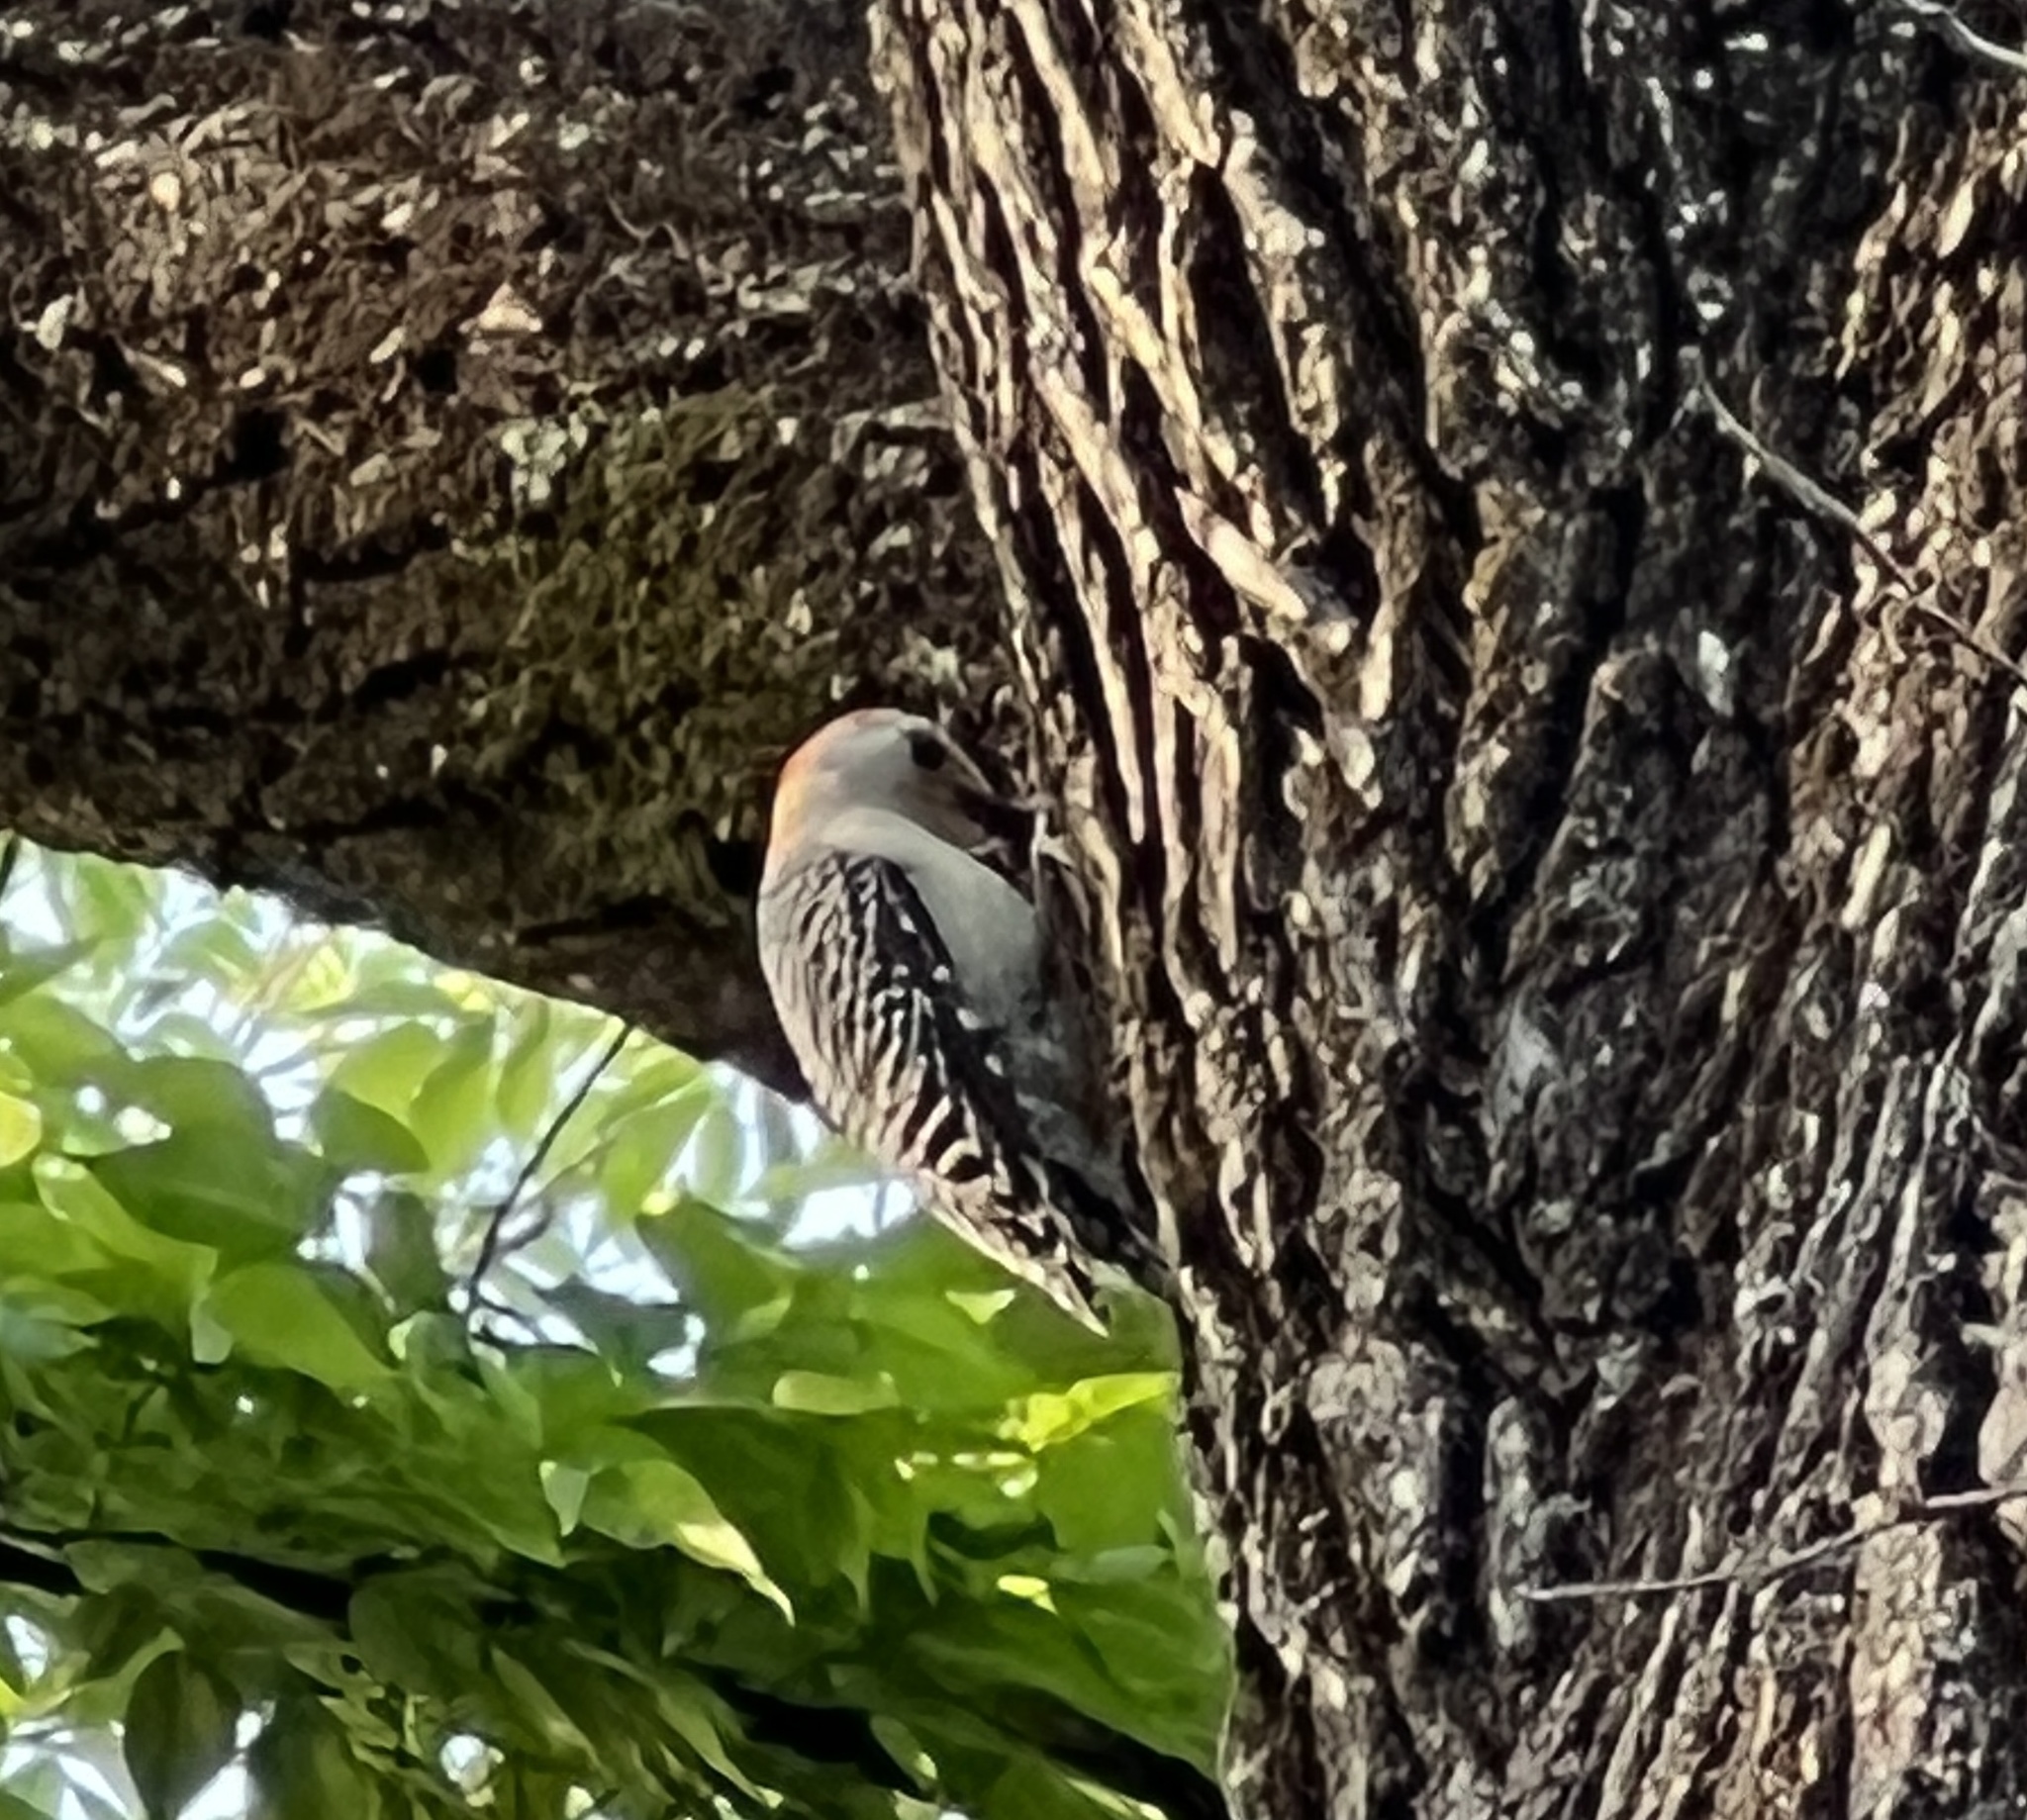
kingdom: Animalia
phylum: Chordata
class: Aves
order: Piciformes
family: Picidae
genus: Melanerpes
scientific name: Melanerpes carolinus
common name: Red-bellied woodpecker
